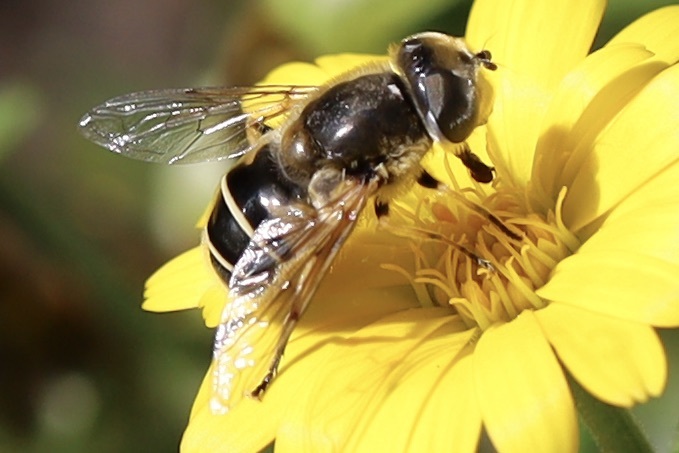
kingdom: Animalia
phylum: Arthropoda
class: Insecta
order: Diptera
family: Syrphidae
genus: Eristalis
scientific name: Eristalis hirta
